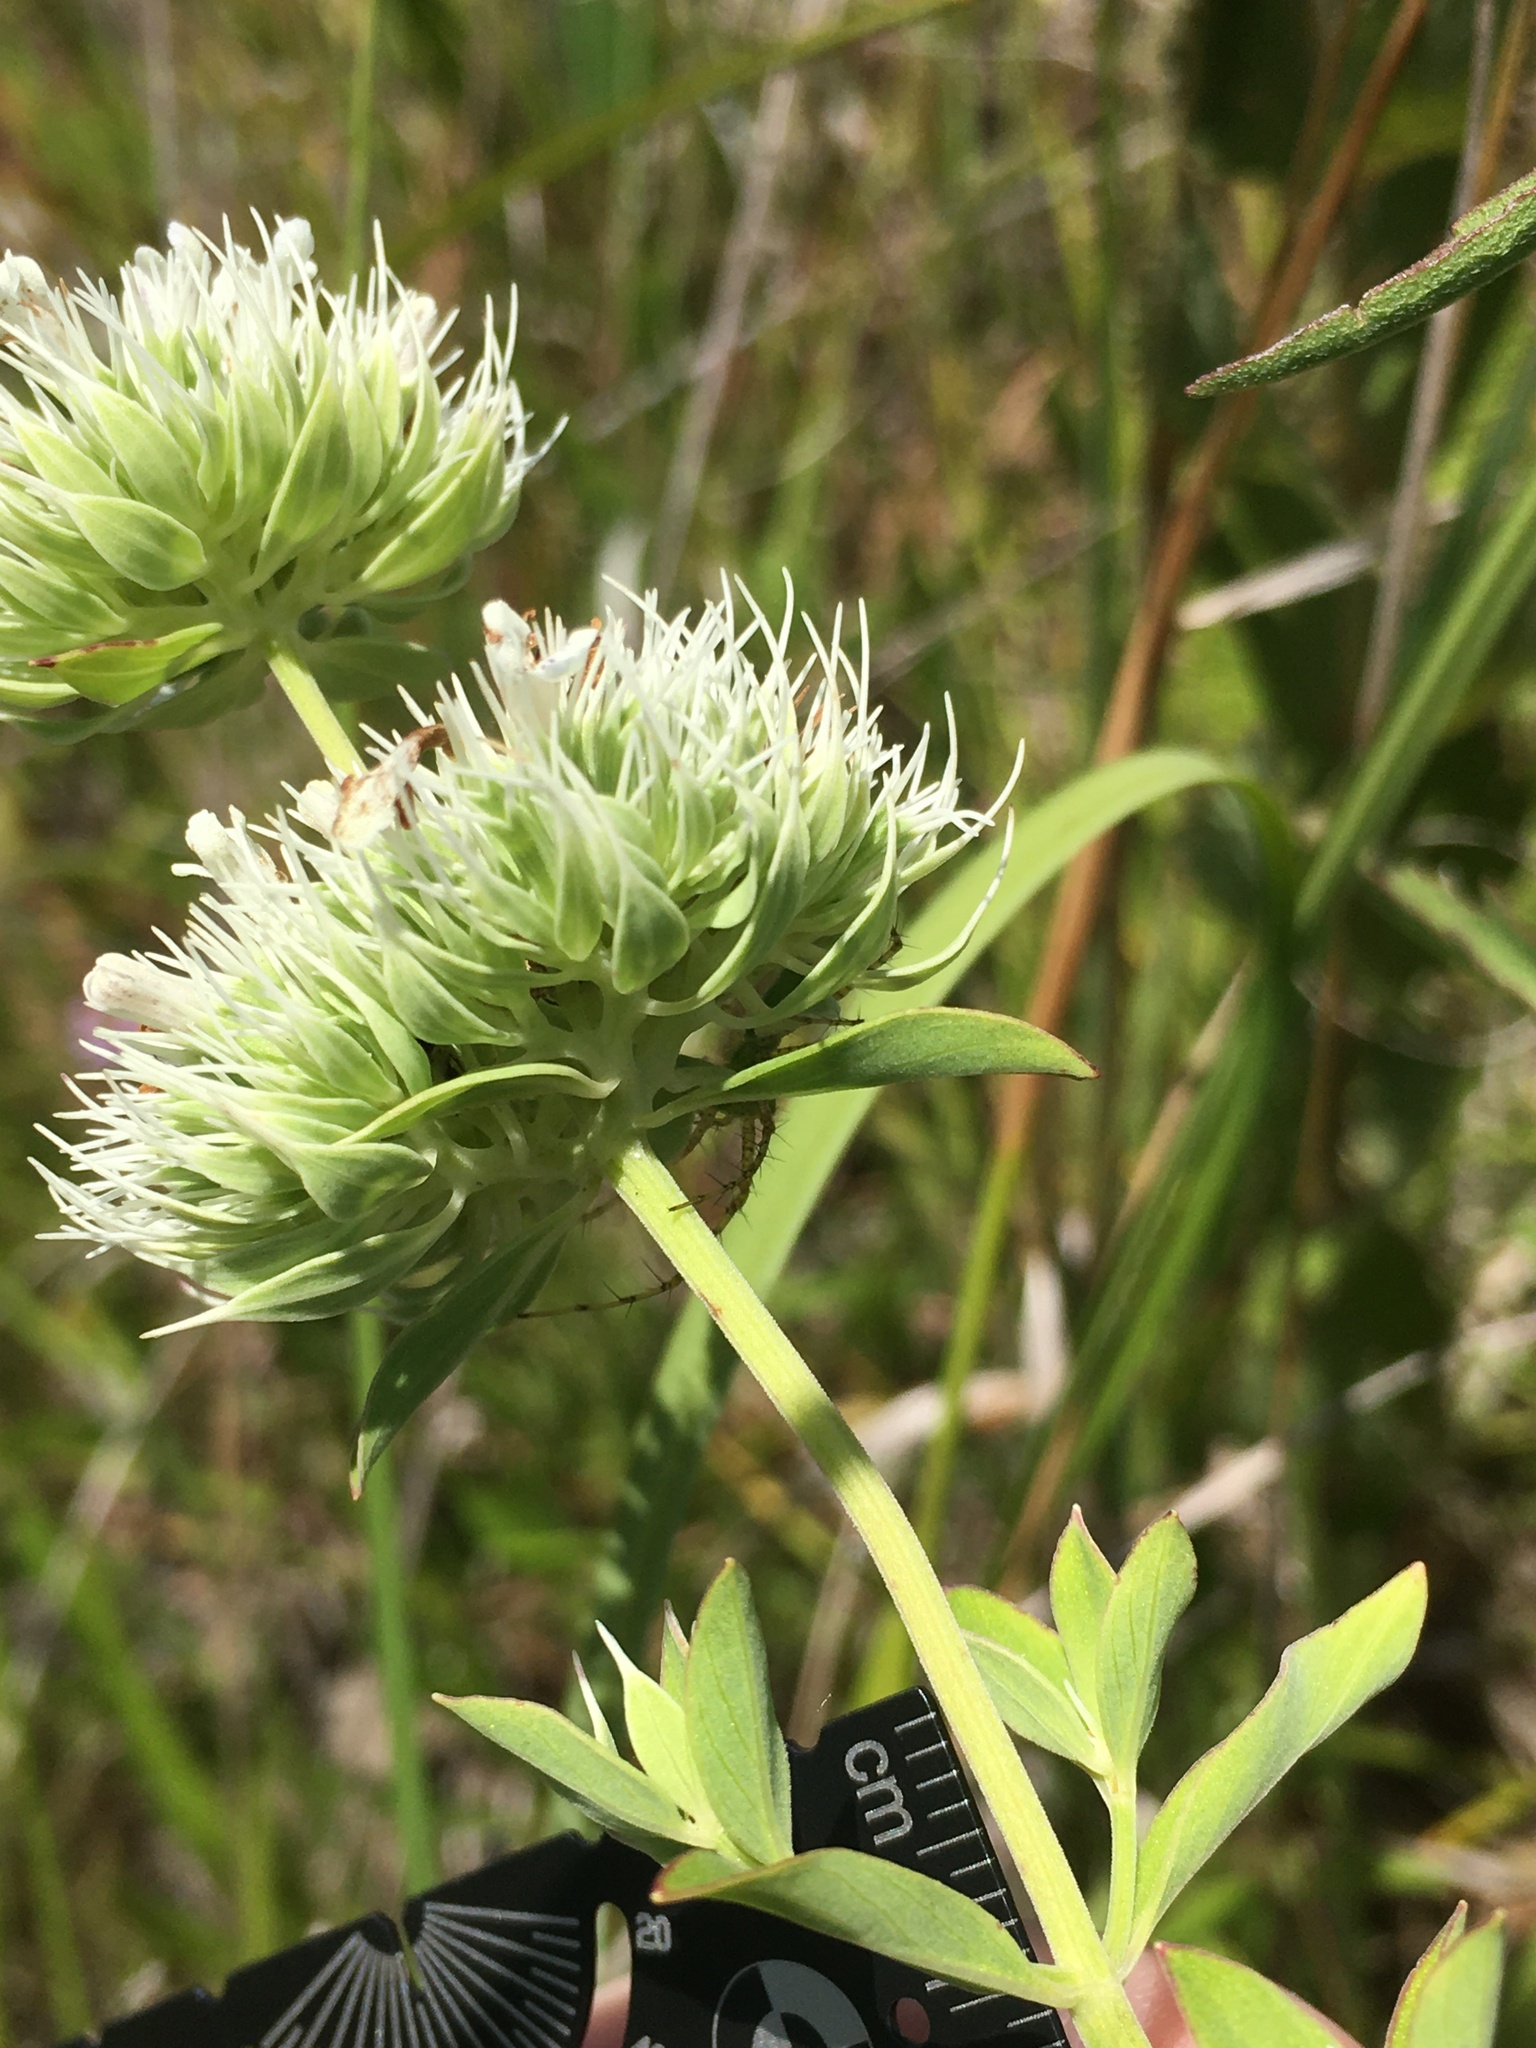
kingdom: Plantae
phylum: Tracheophyta
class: Magnoliopsida
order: Lamiales
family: Lamiaceae
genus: Pycnanthemum
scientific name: Pycnanthemum flexuosum
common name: Appalachian mountain-mint
